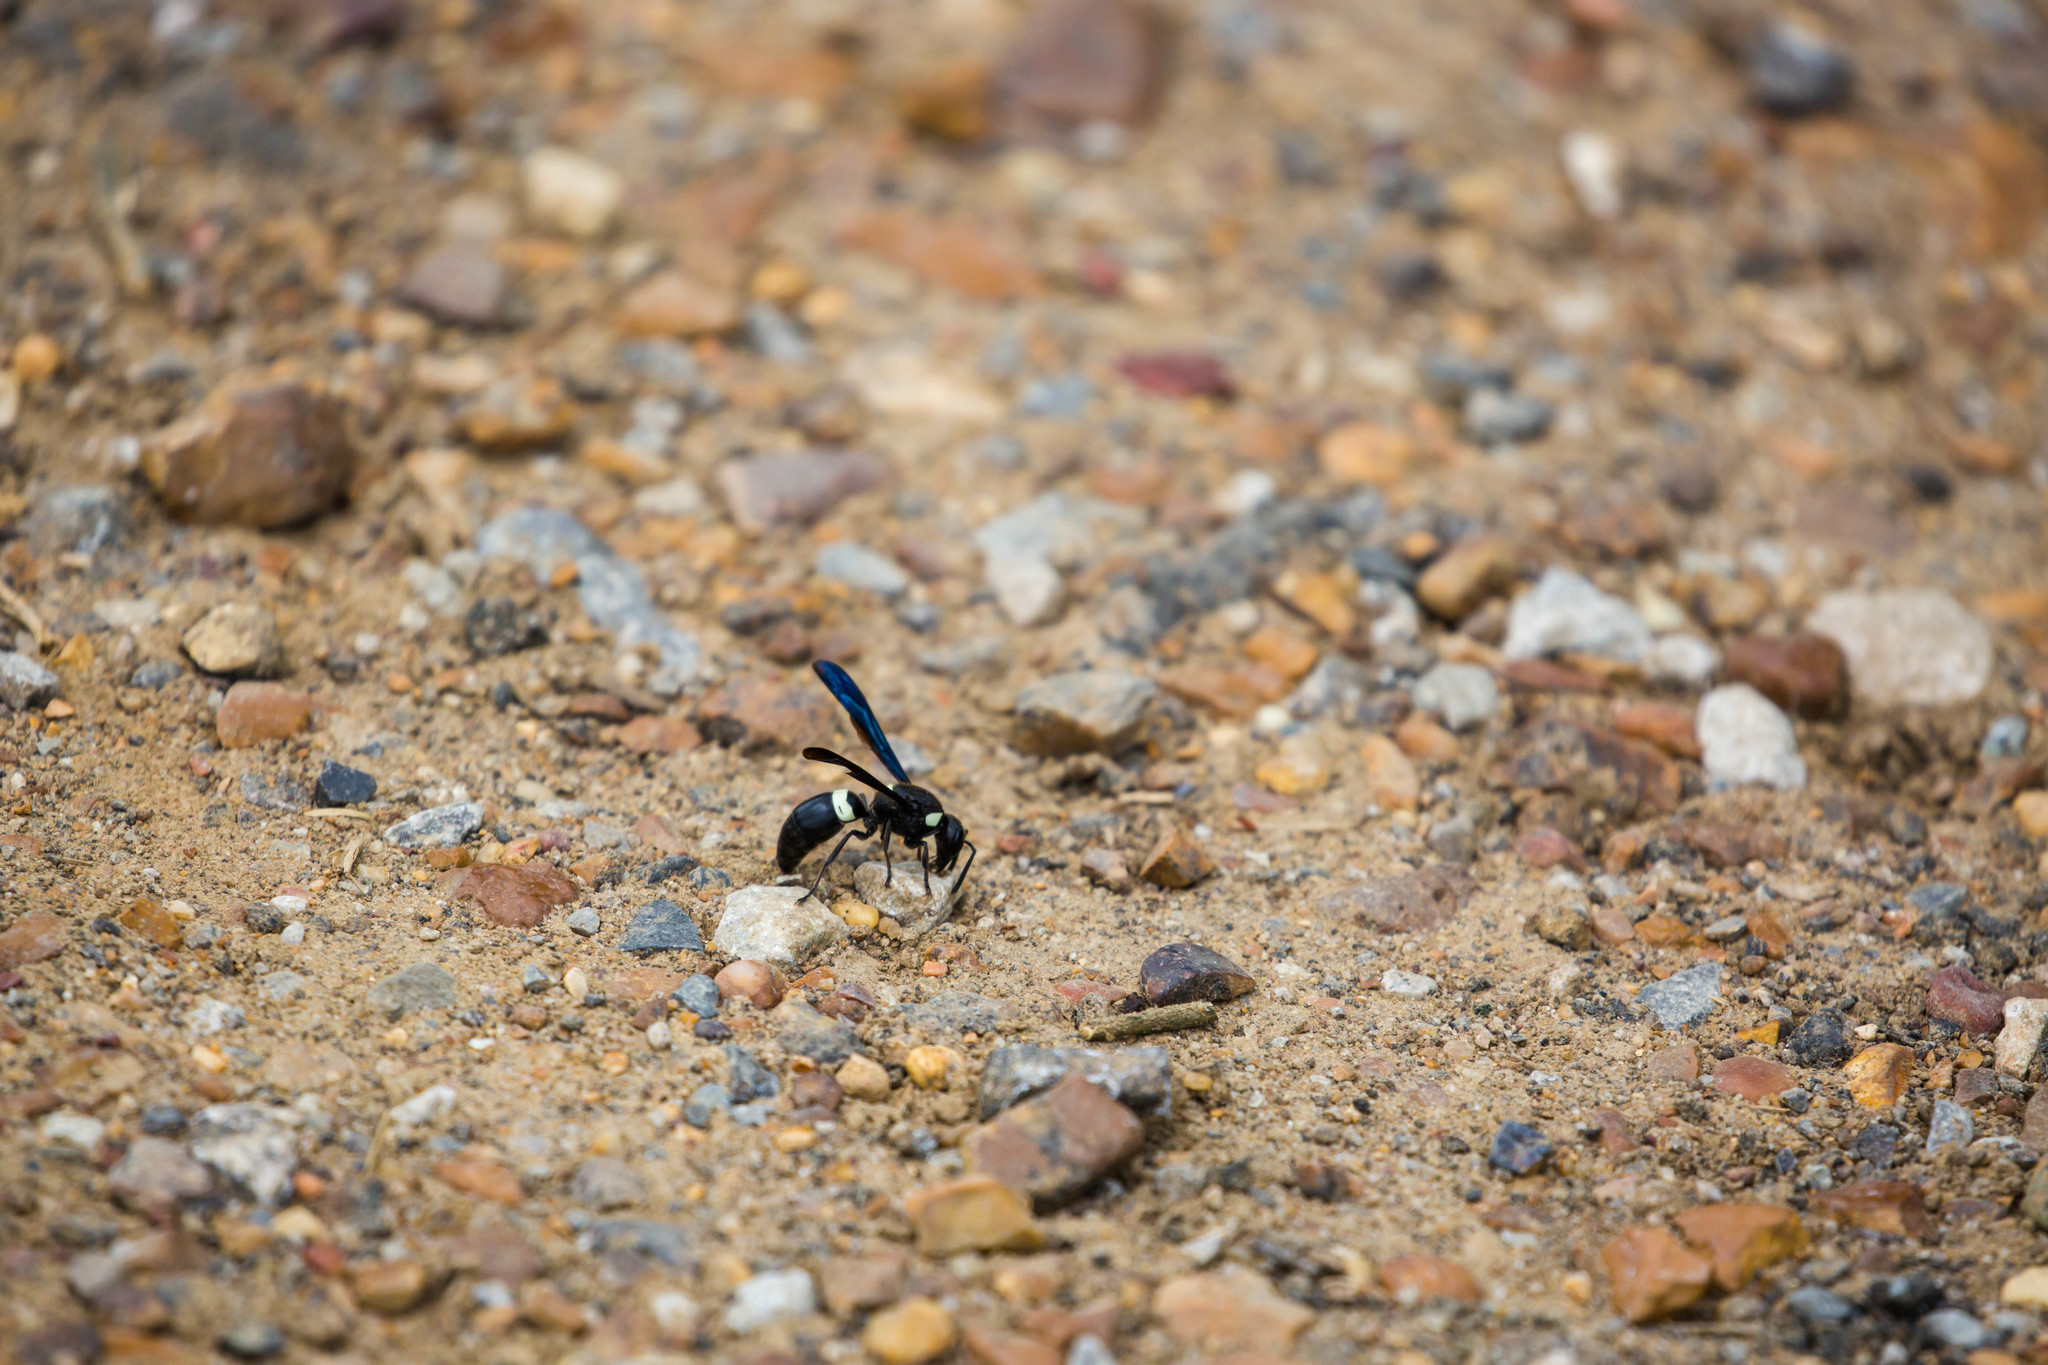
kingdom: Animalia
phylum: Arthropoda
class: Insecta
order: Hymenoptera
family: Eumenidae
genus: Monobia
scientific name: Monobia quadridens
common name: Four-toothed mason wasp
